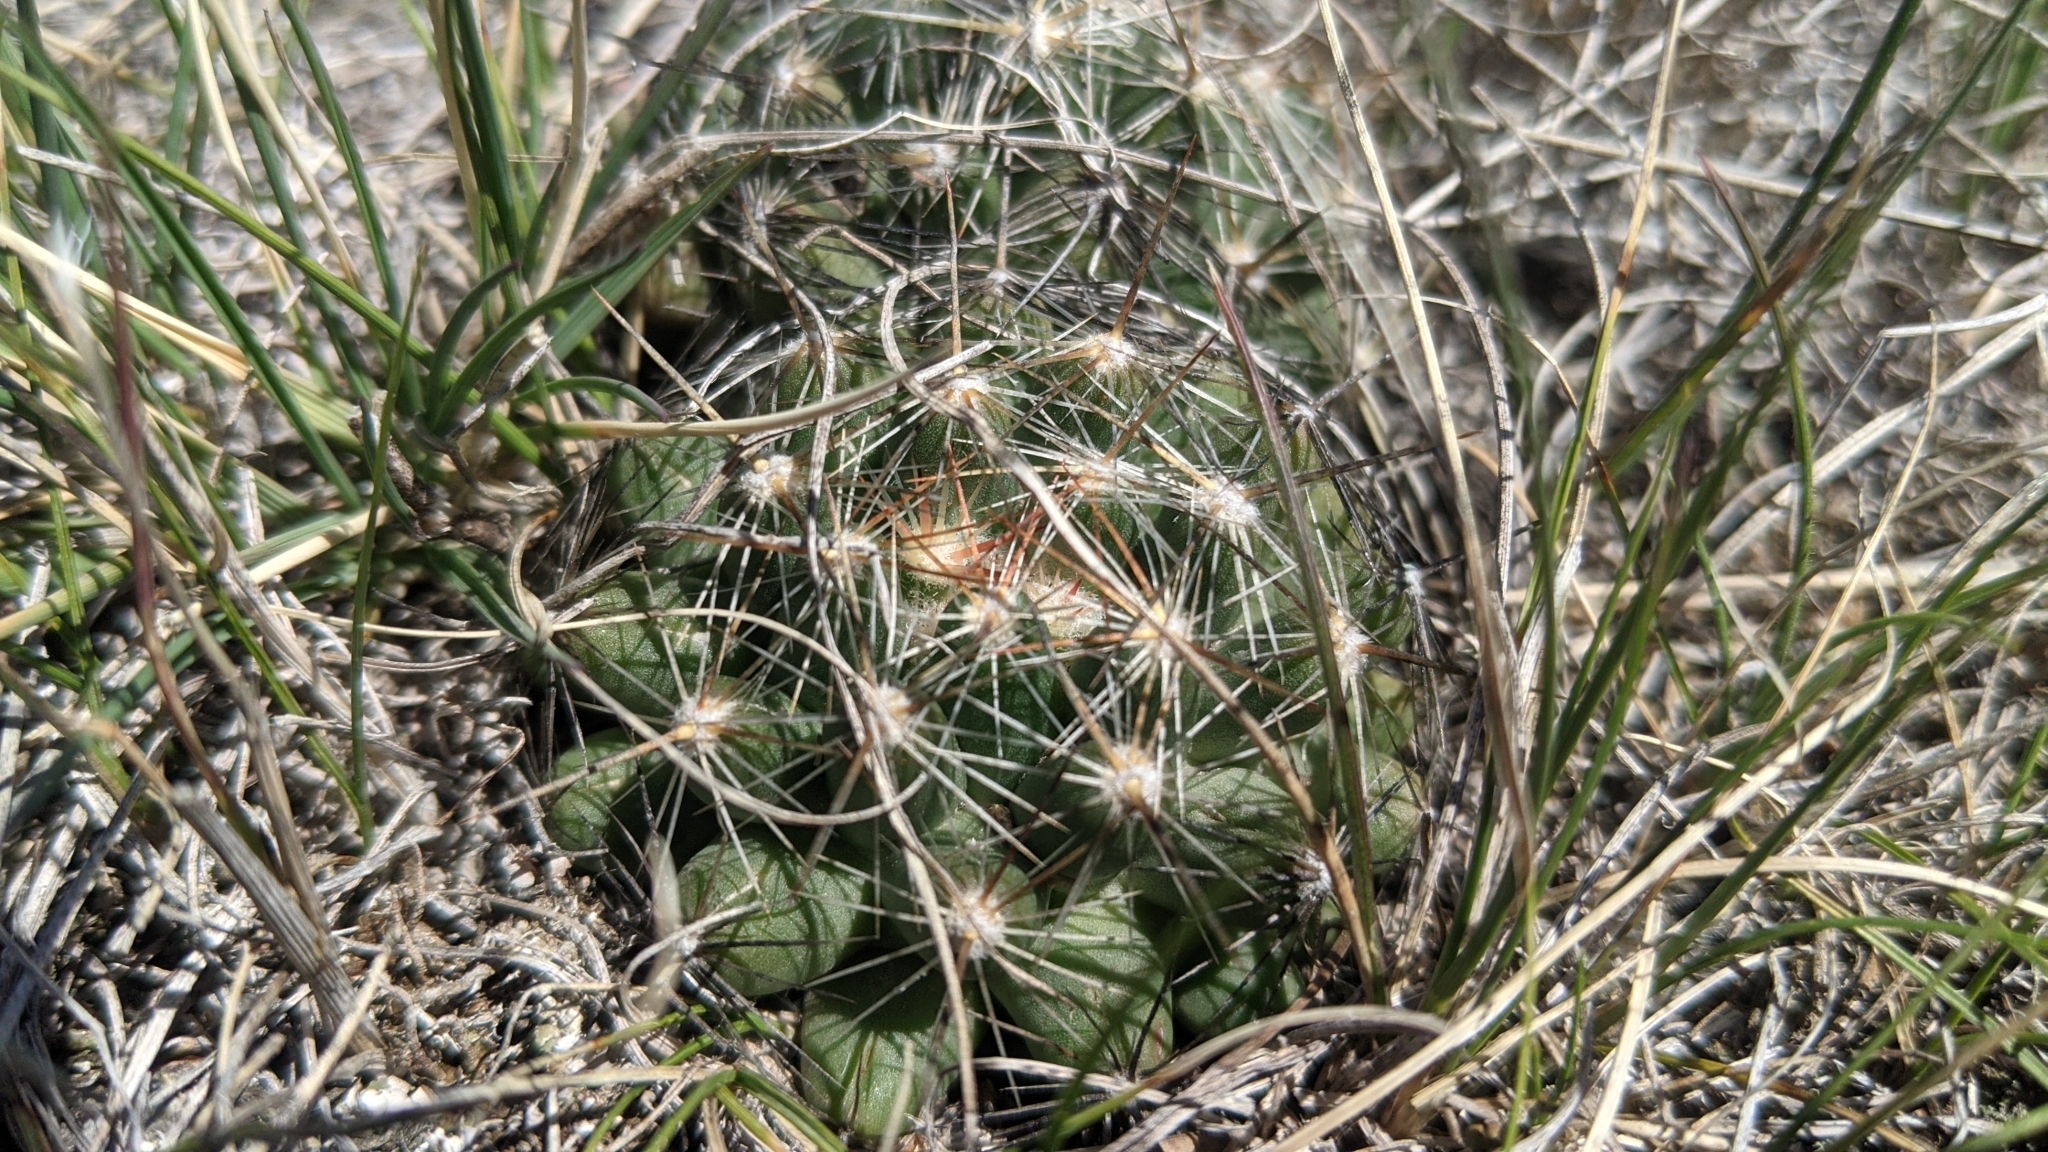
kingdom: Plantae
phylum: Tracheophyta
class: Magnoliopsida
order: Caryophyllales
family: Cactaceae
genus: Pelecyphora
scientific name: Pelecyphora vivipara
